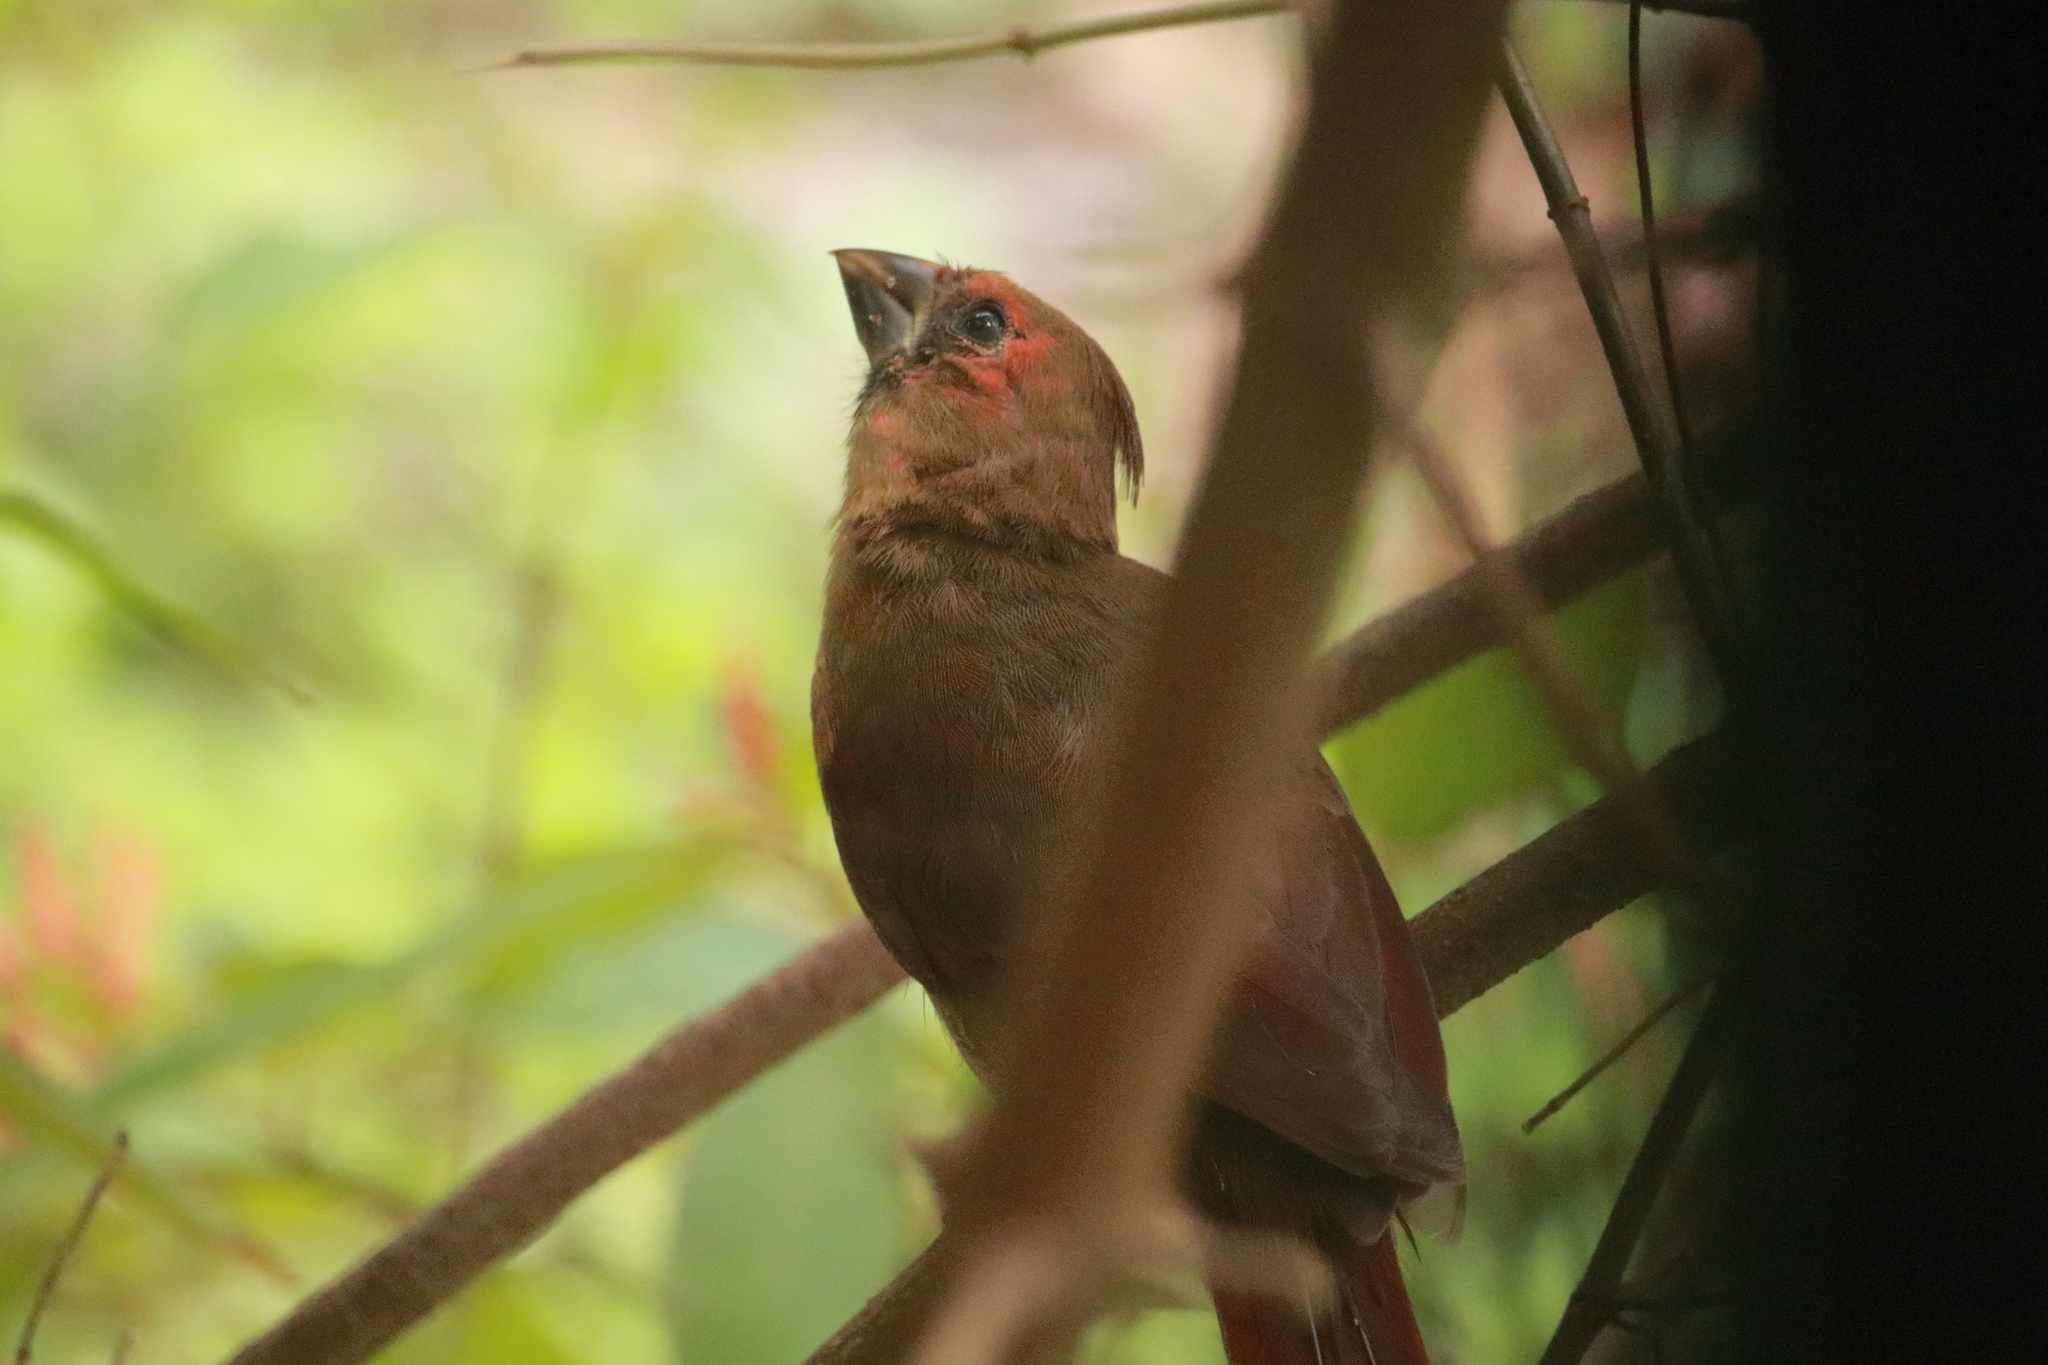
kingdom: Animalia
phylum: Chordata
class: Aves
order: Passeriformes
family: Cardinalidae
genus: Cardinalis
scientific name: Cardinalis cardinalis
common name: Northern cardinal
